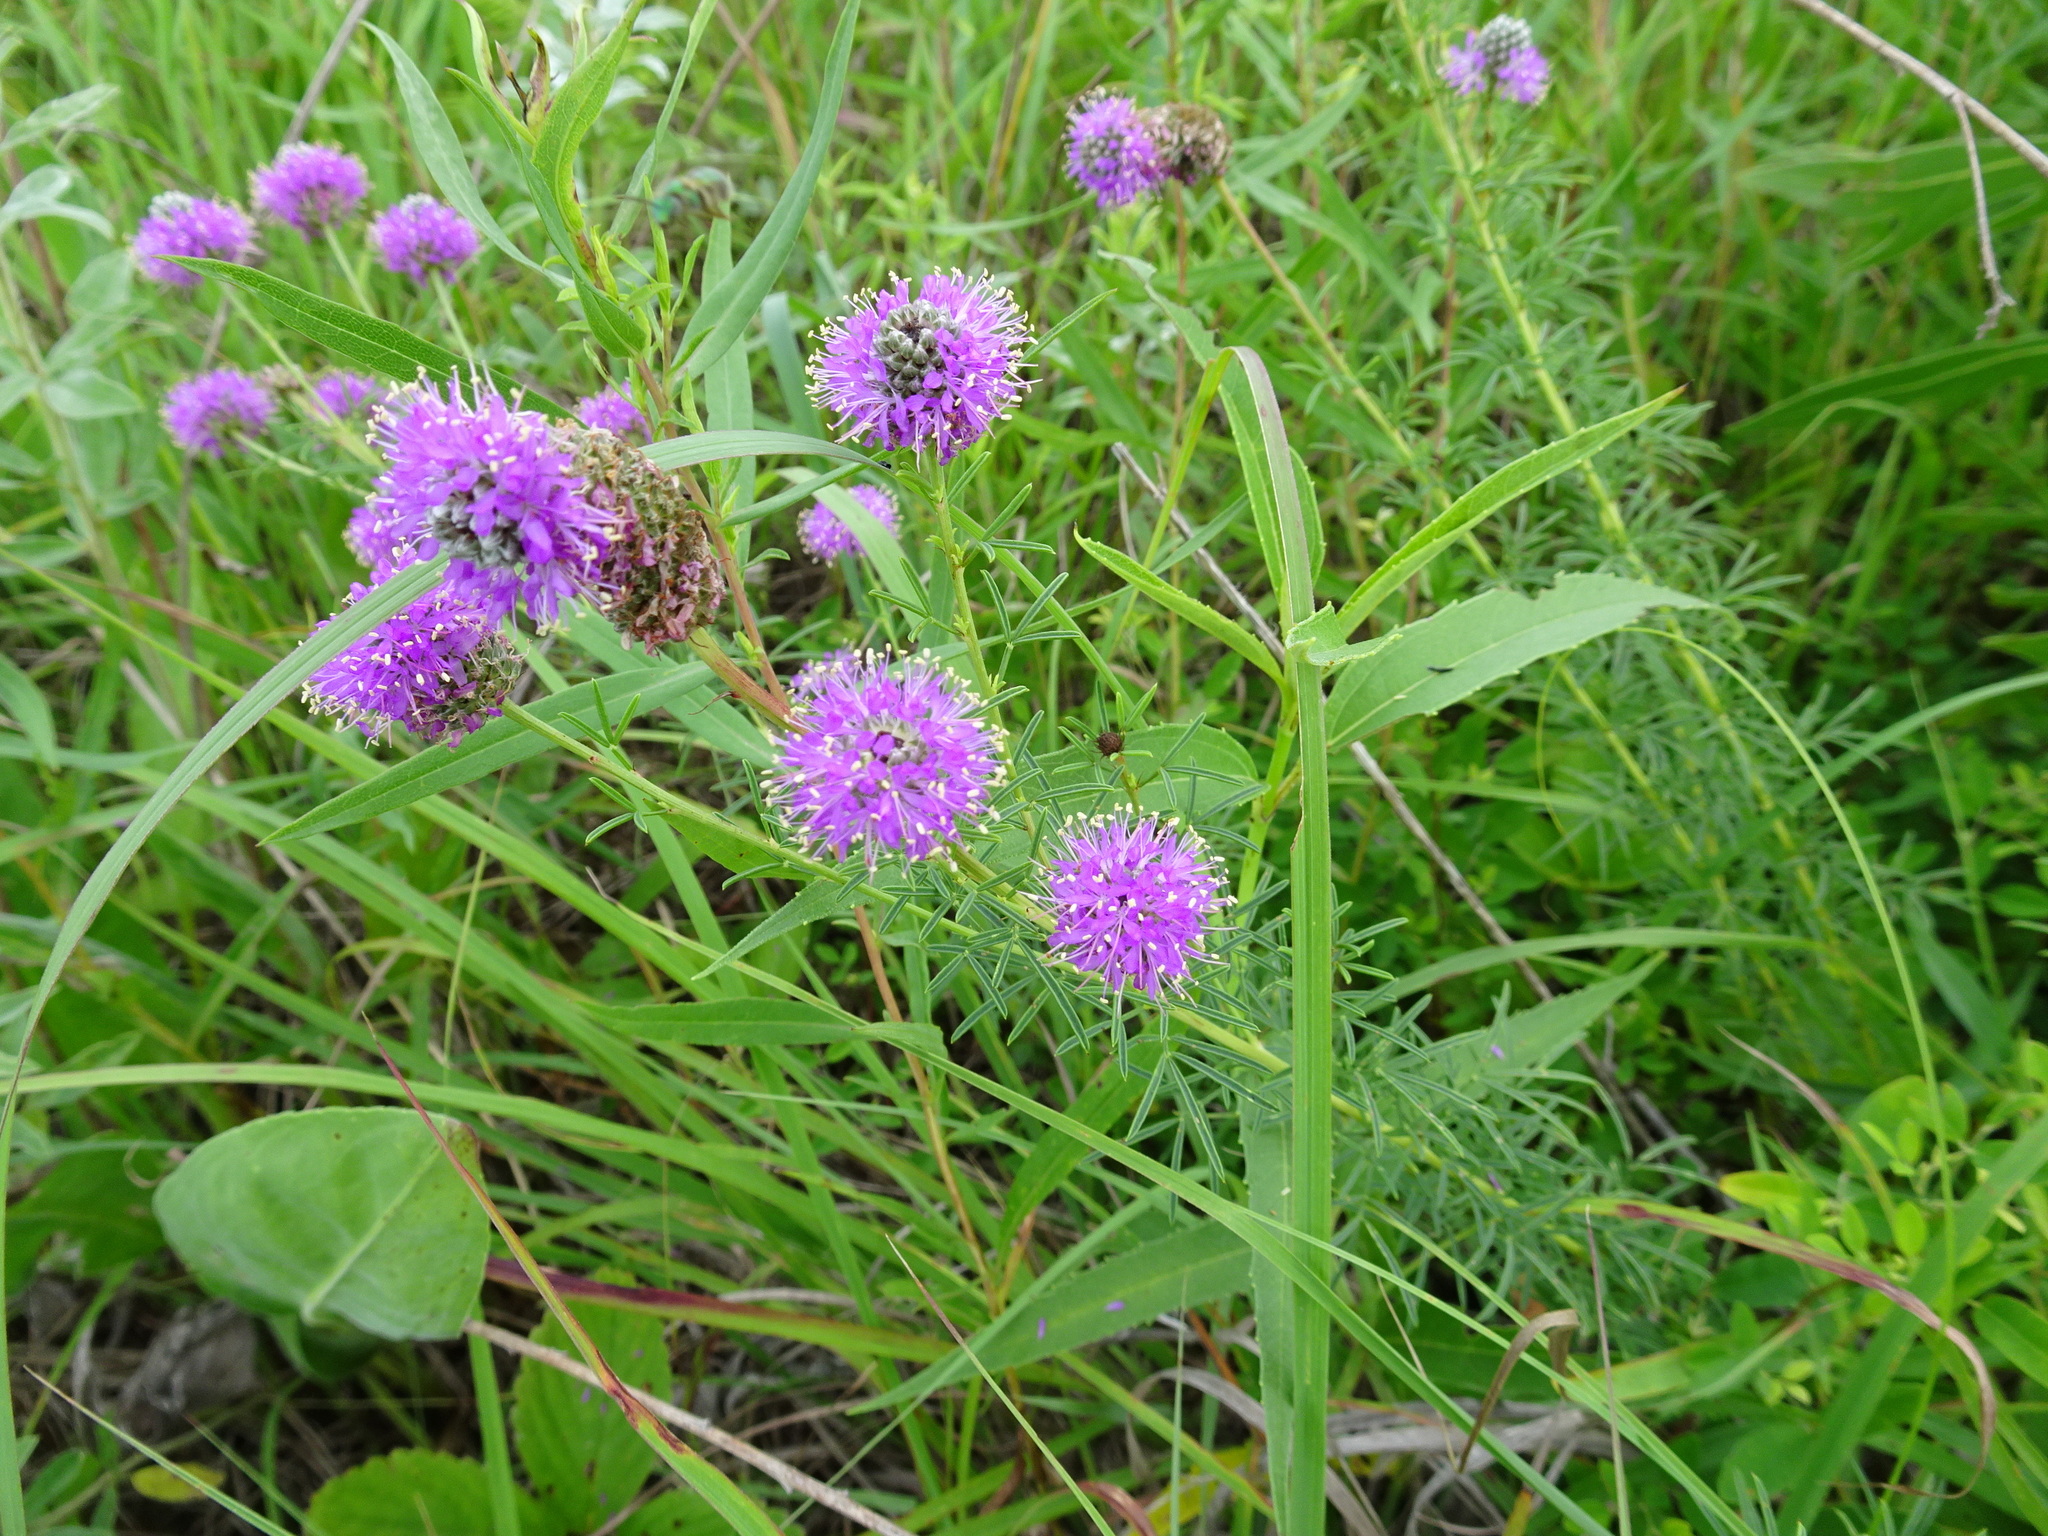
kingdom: Plantae
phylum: Tracheophyta
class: Magnoliopsida
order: Fabales
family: Fabaceae
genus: Dalea
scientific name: Dalea purpurea
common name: Purple prairie-clover
